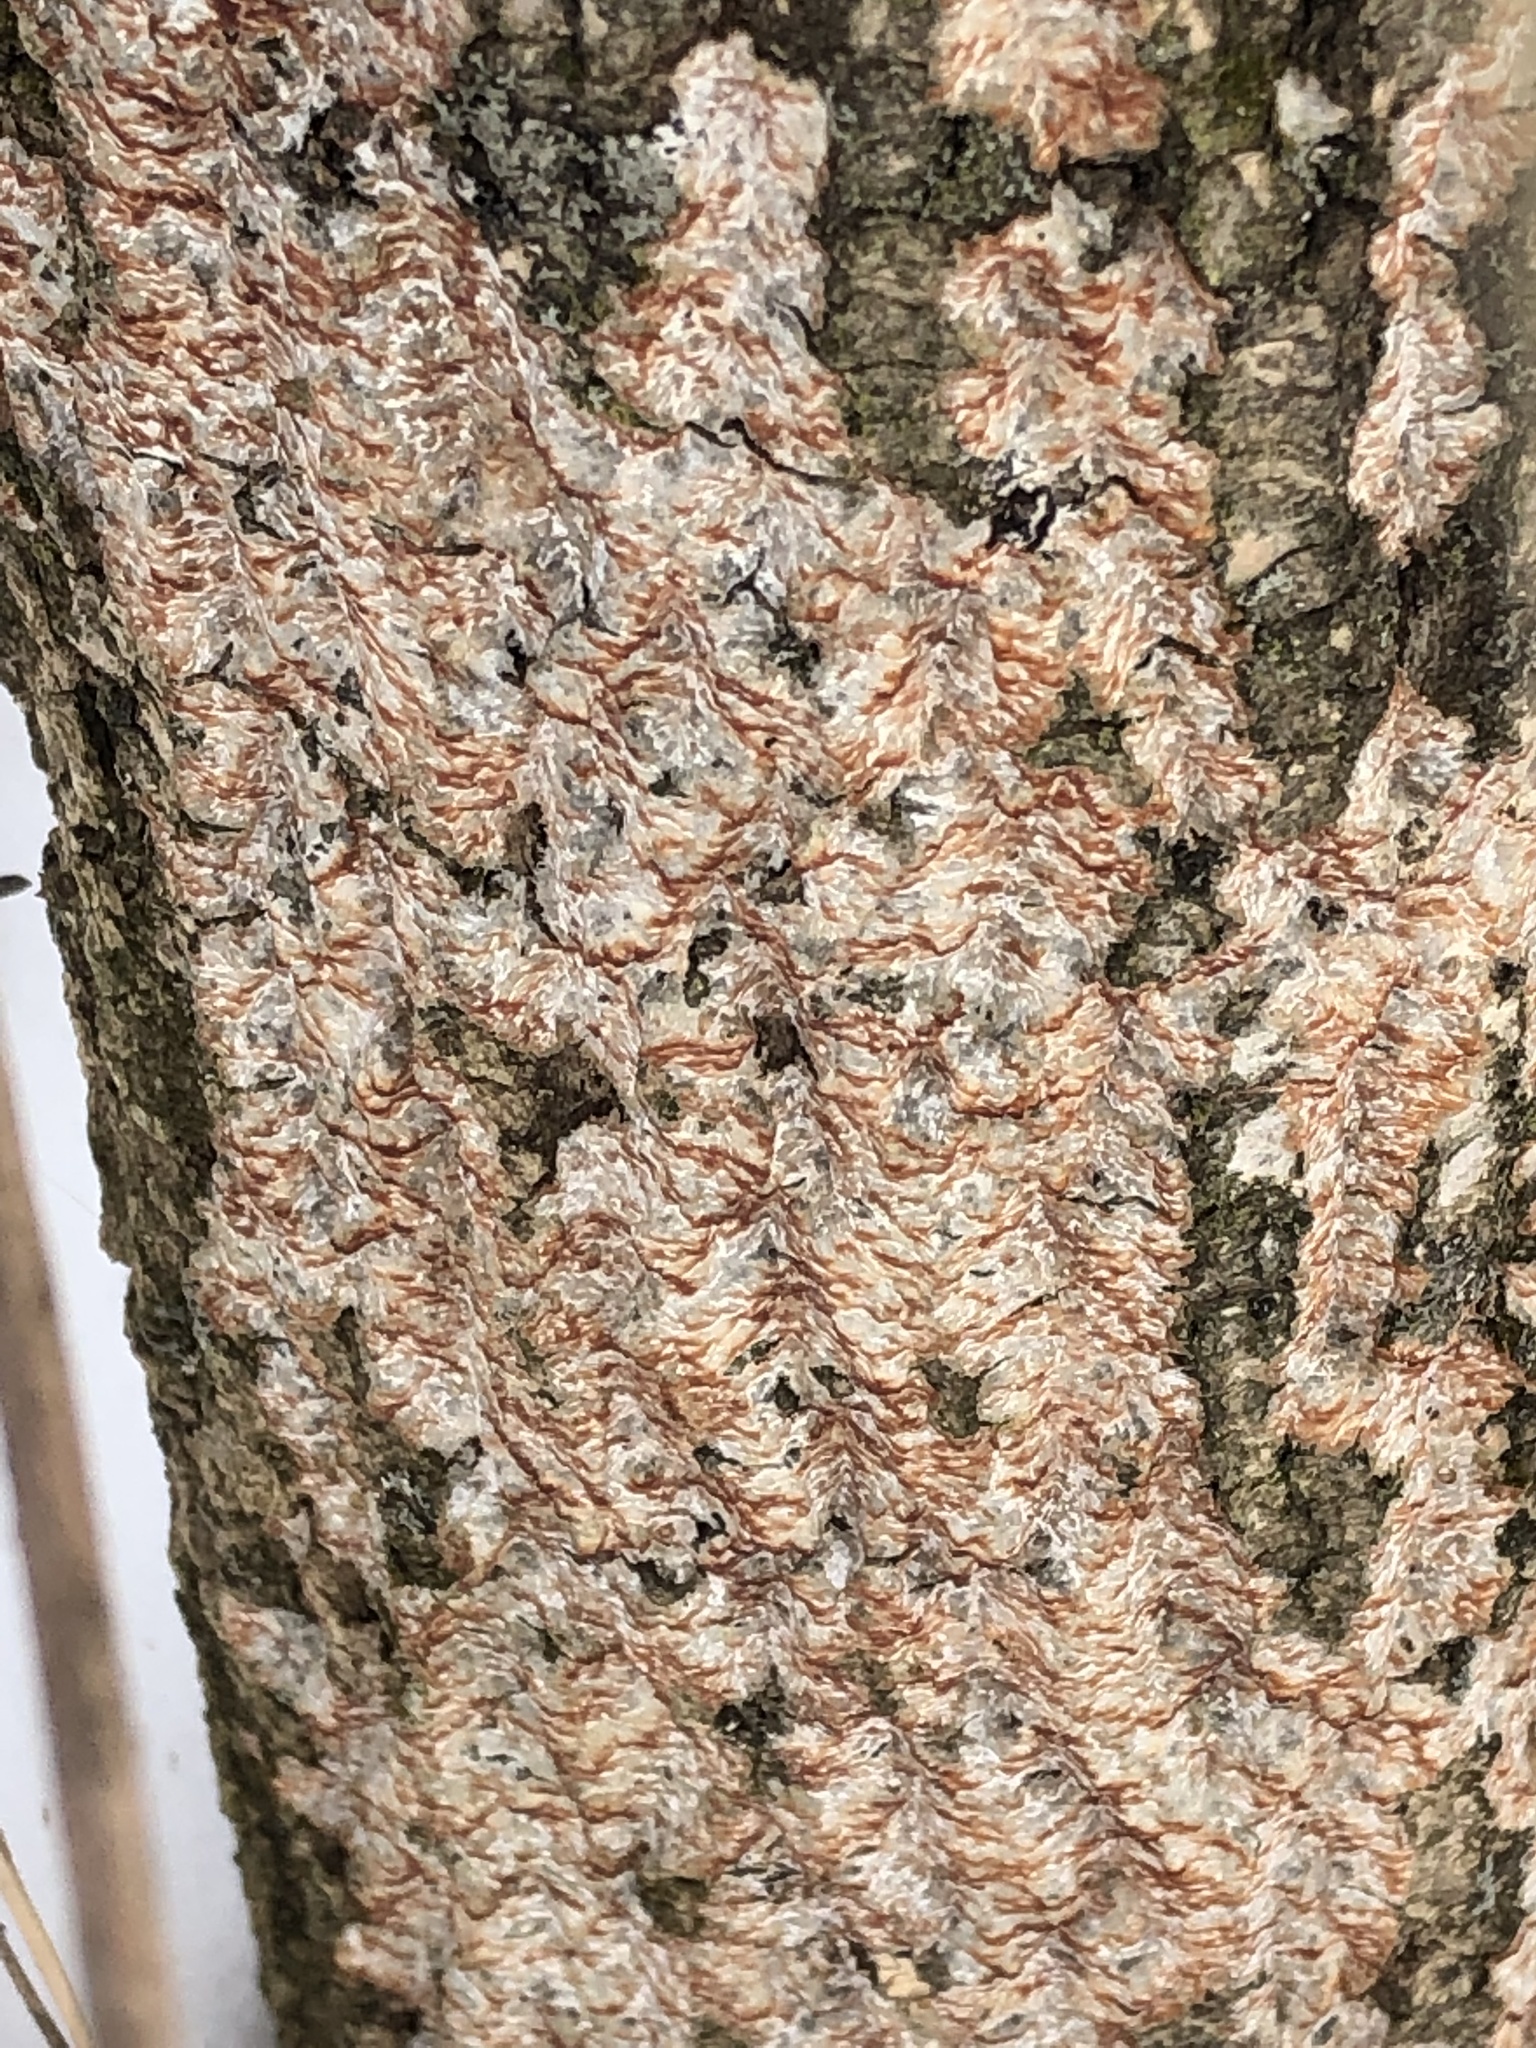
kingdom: Fungi
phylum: Basidiomycota
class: Agaricomycetes
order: Polyporales
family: Meruliaceae
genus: Phlebia
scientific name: Phlebia radiata
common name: Wrinkled crust
